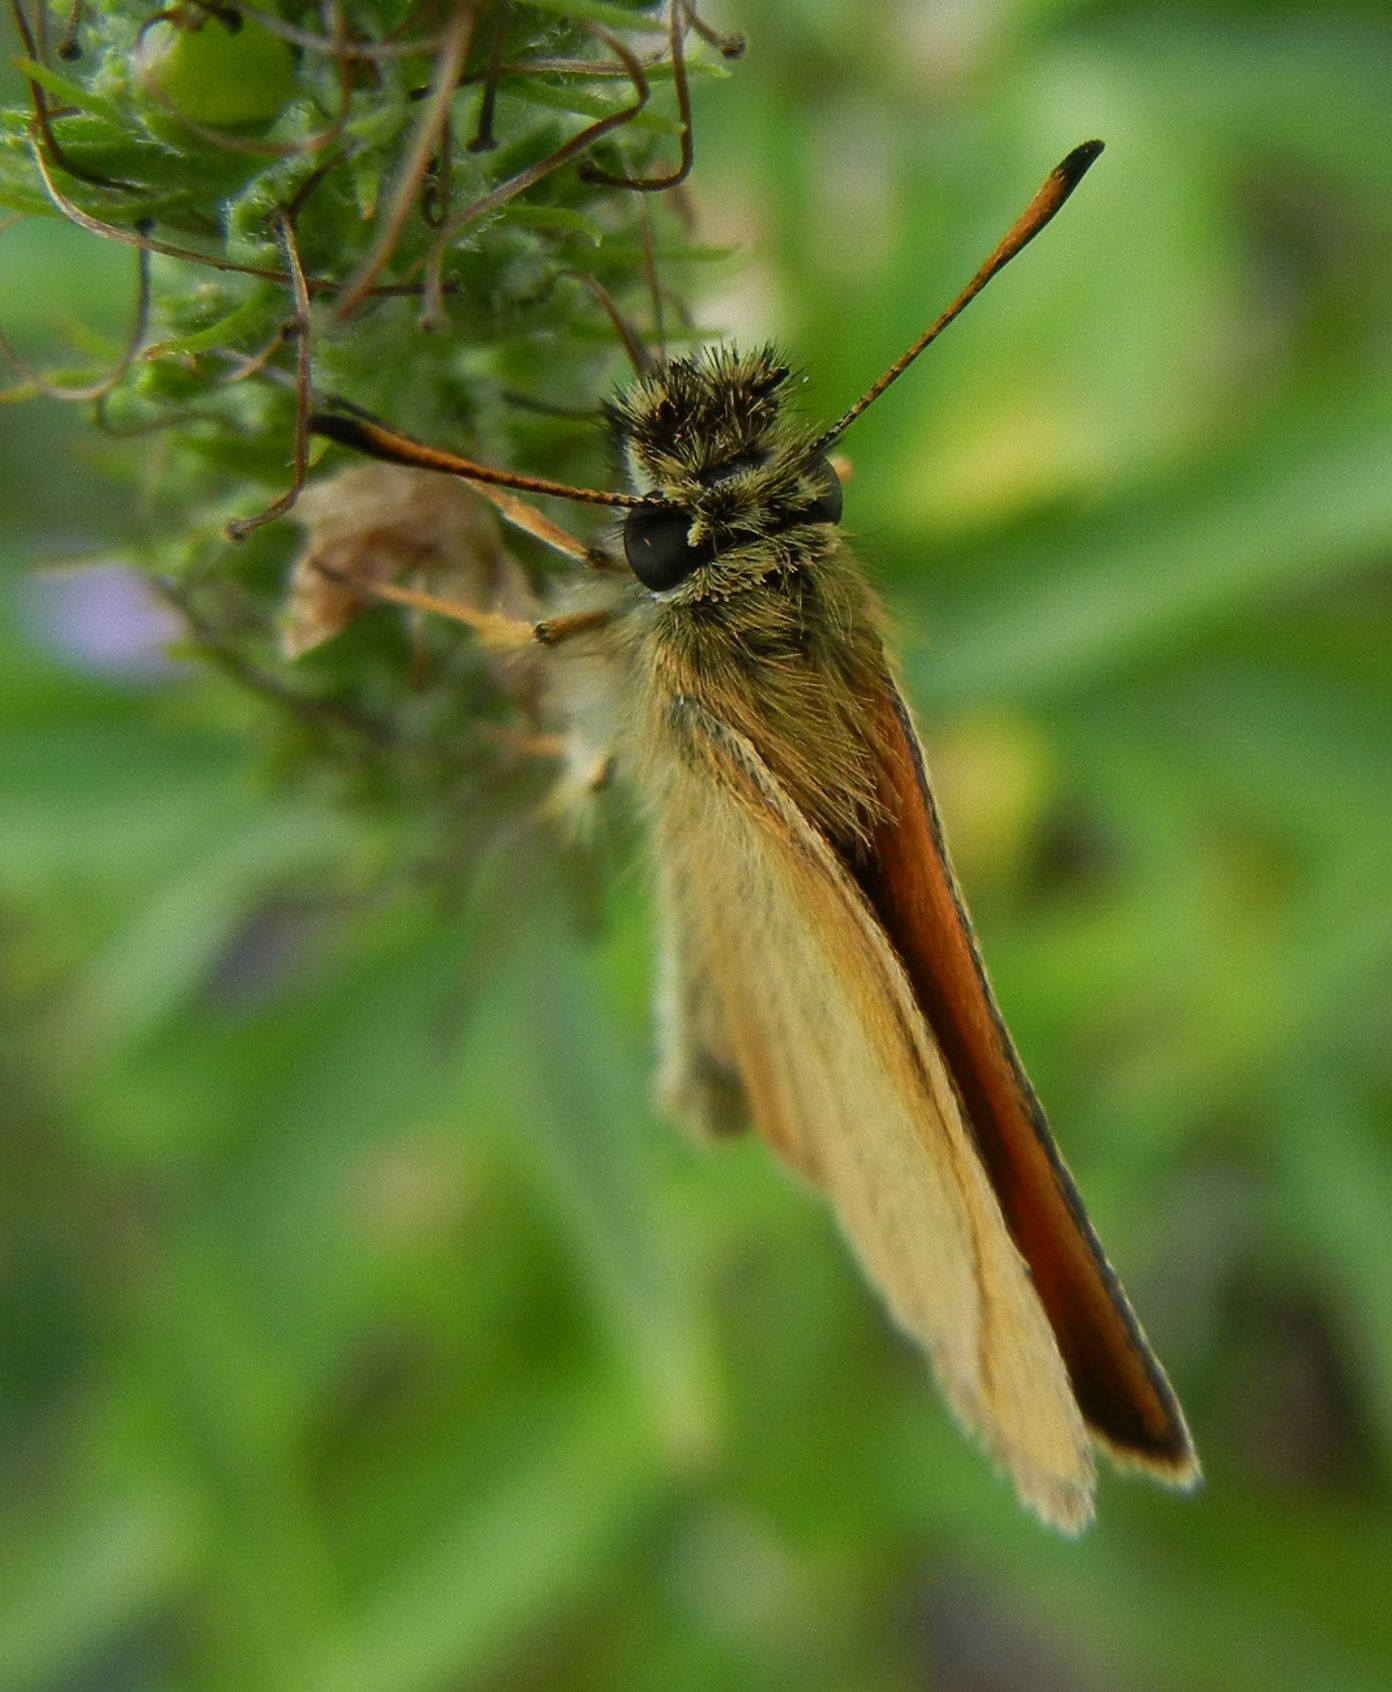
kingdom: Animalia
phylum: Arthropoda
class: Insecta
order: Lepidoptera
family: Hesperiidae
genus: Thymelicus
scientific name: Thymelicus lineola
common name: Essex skipper
